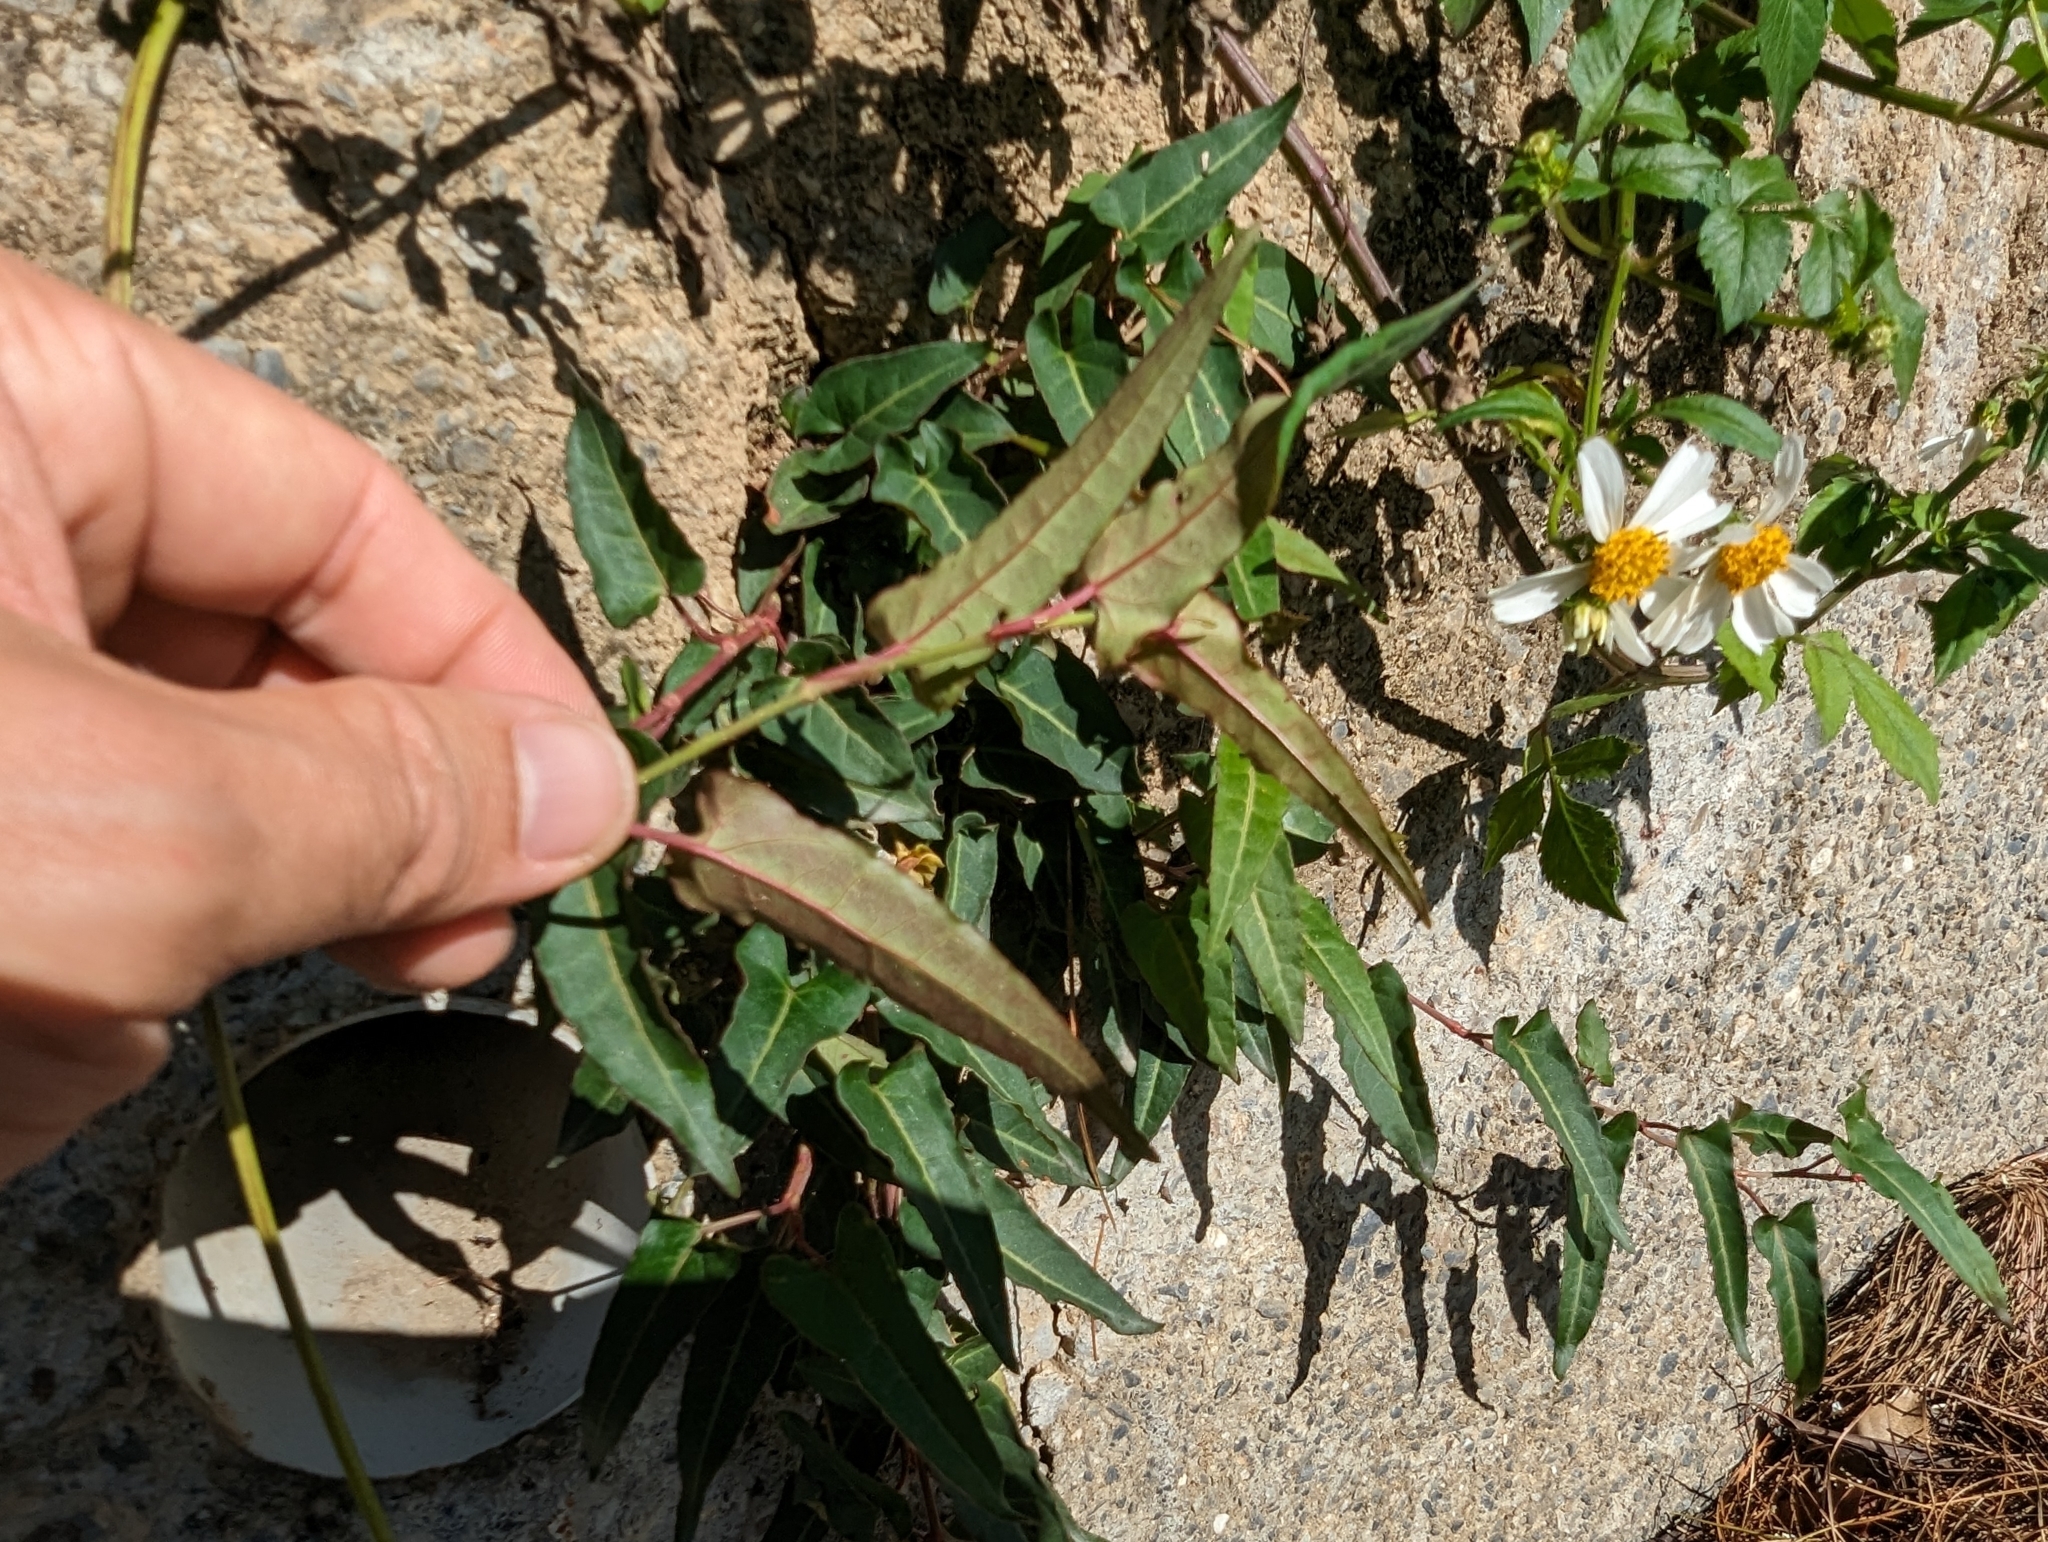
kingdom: Plantae
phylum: Tracheophyta
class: Magnoliopsida
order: Caryophyllales
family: Polygonaceae
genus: Reynoutria
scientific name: Reynoutria multiflora
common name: Chinese fleeceflower
